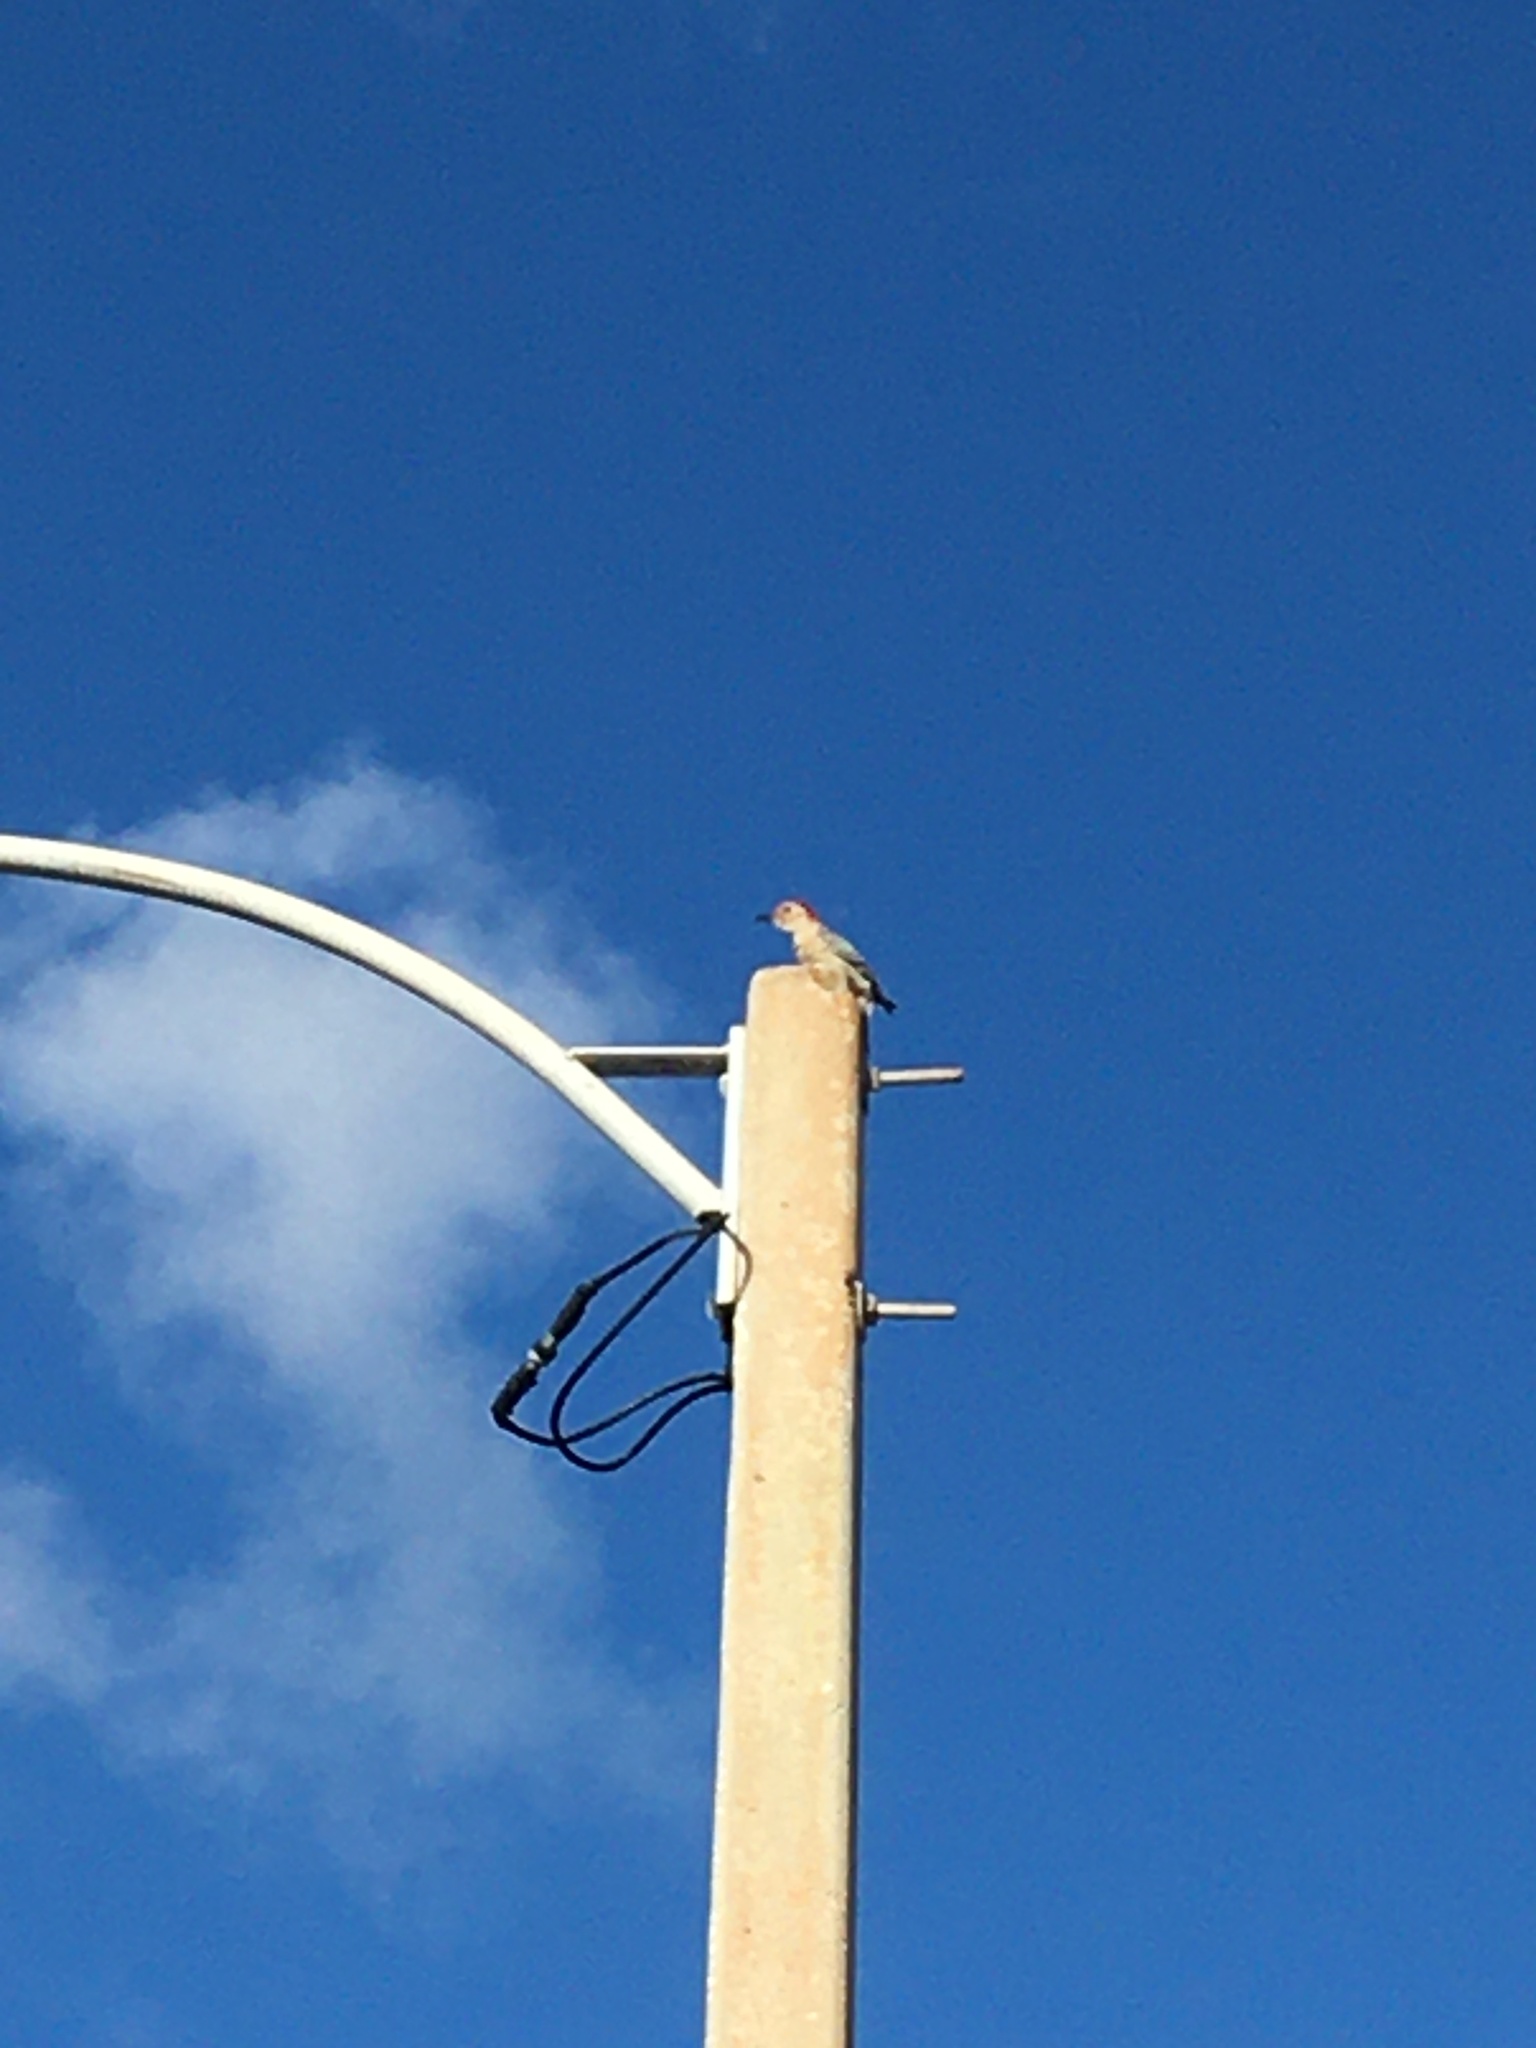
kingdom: Animalia
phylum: Chordata
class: Aves
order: Piciformes
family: Picidae
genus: Melanerpes
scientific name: Melanerpes carolinus
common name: Red-bellied woodpecker
